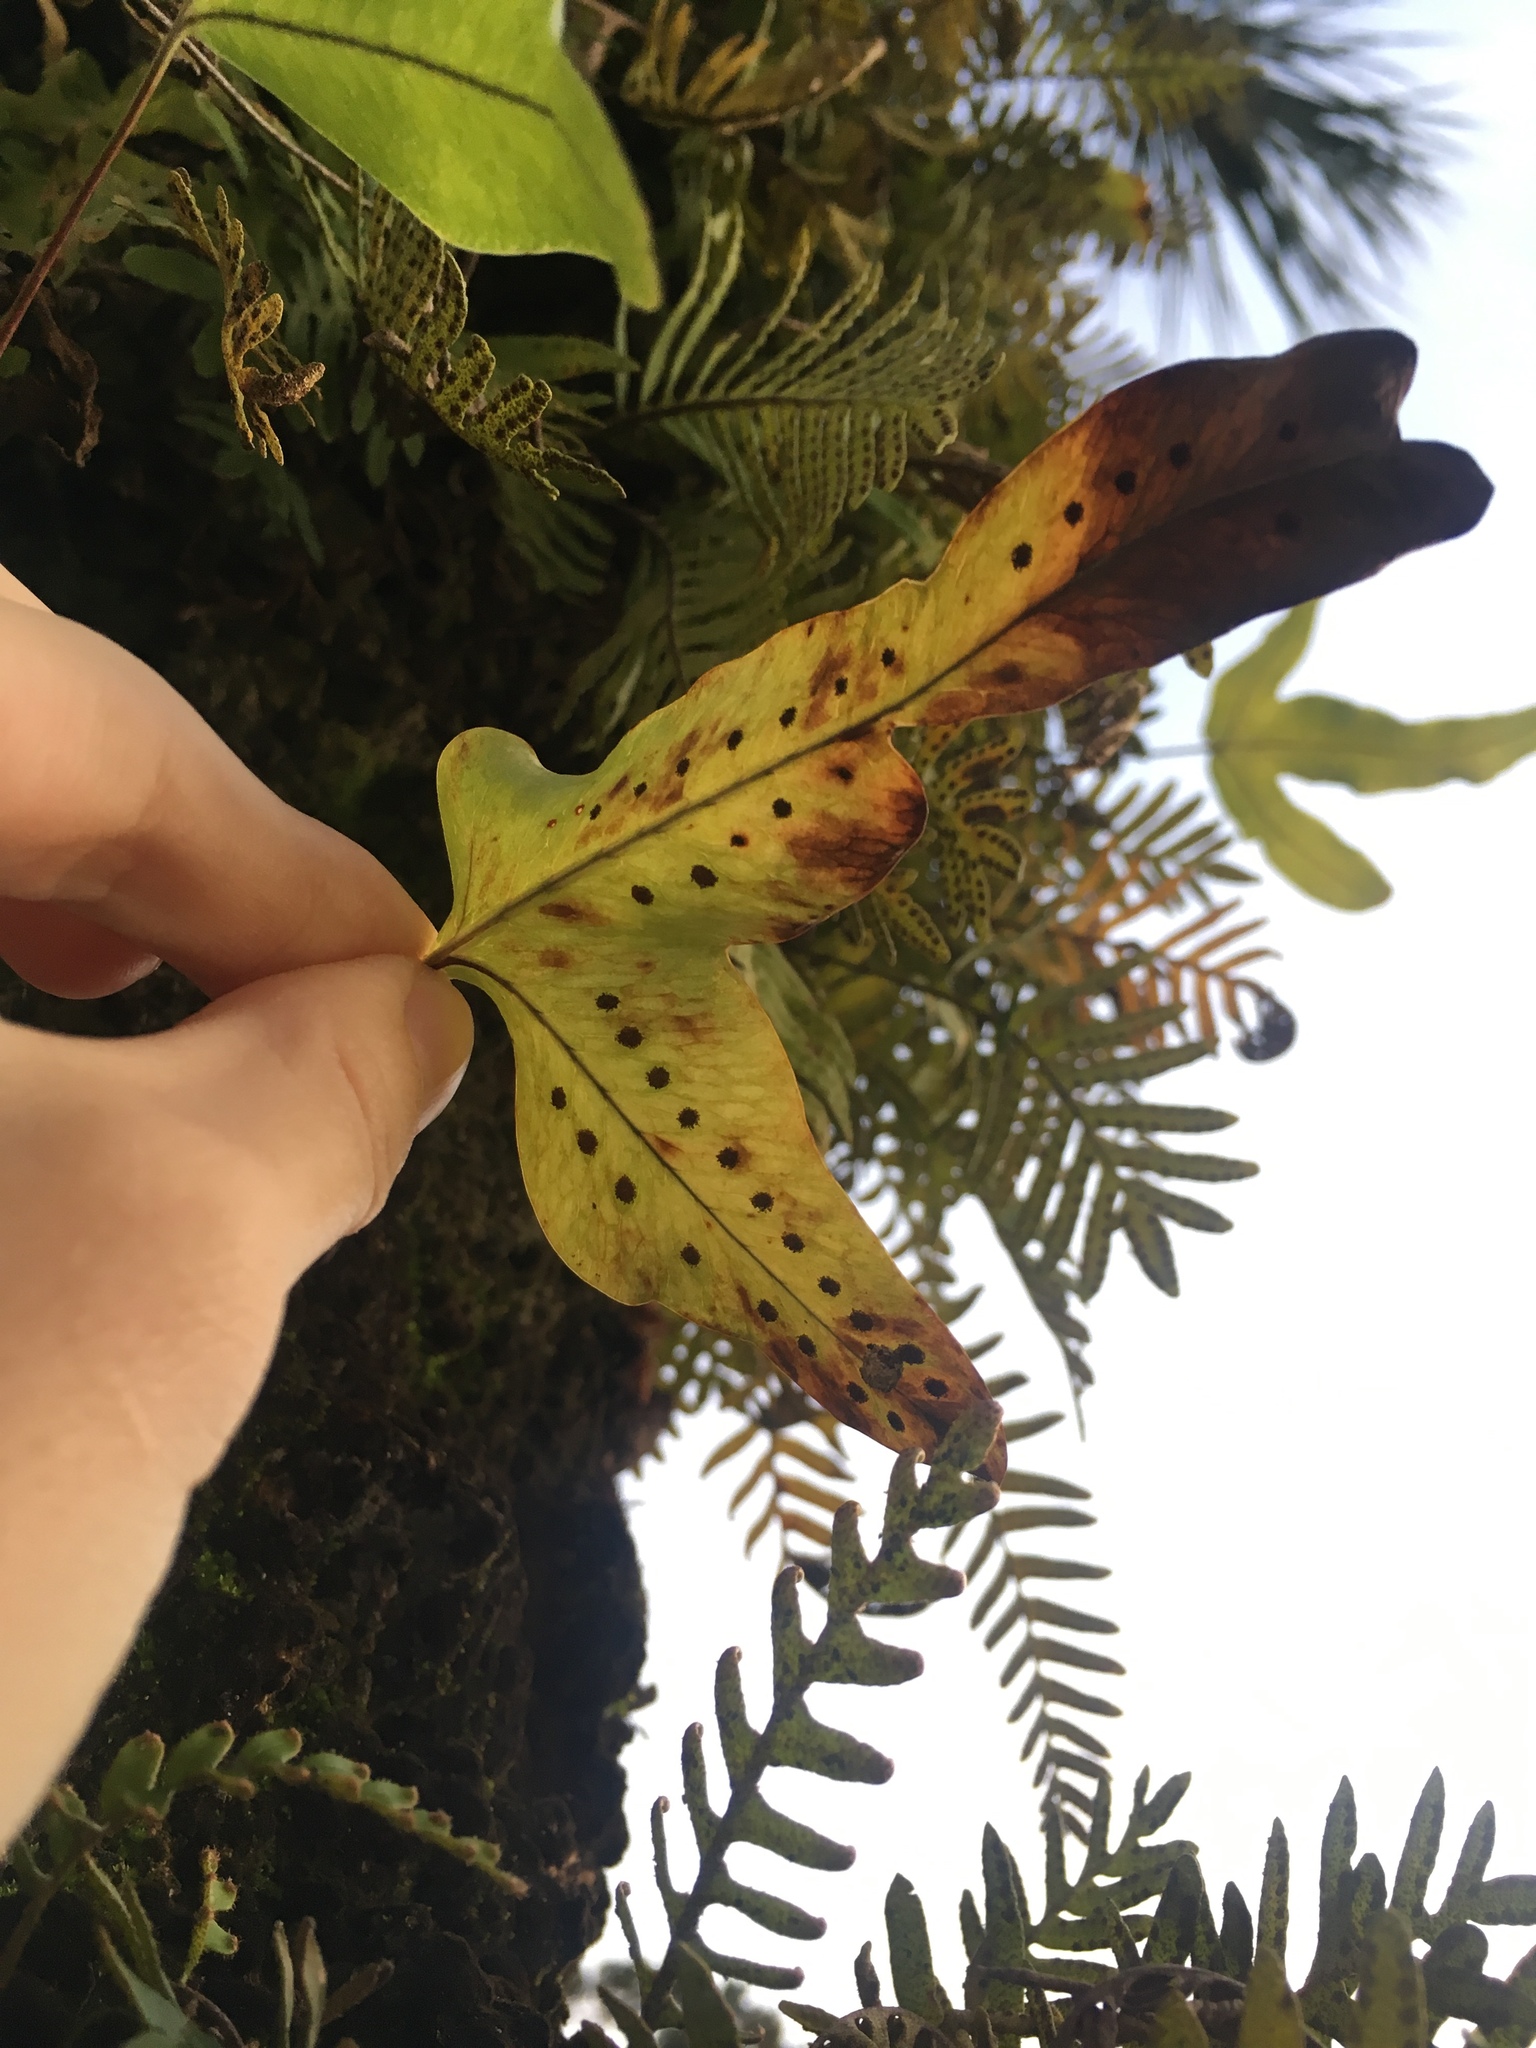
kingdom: Plantae
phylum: Tracheophyta
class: Polypodiopsida
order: Polypodiales
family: Polypodiaceae
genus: Phlebodium
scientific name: Phlebodium aureum
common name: Gold-foot fern
